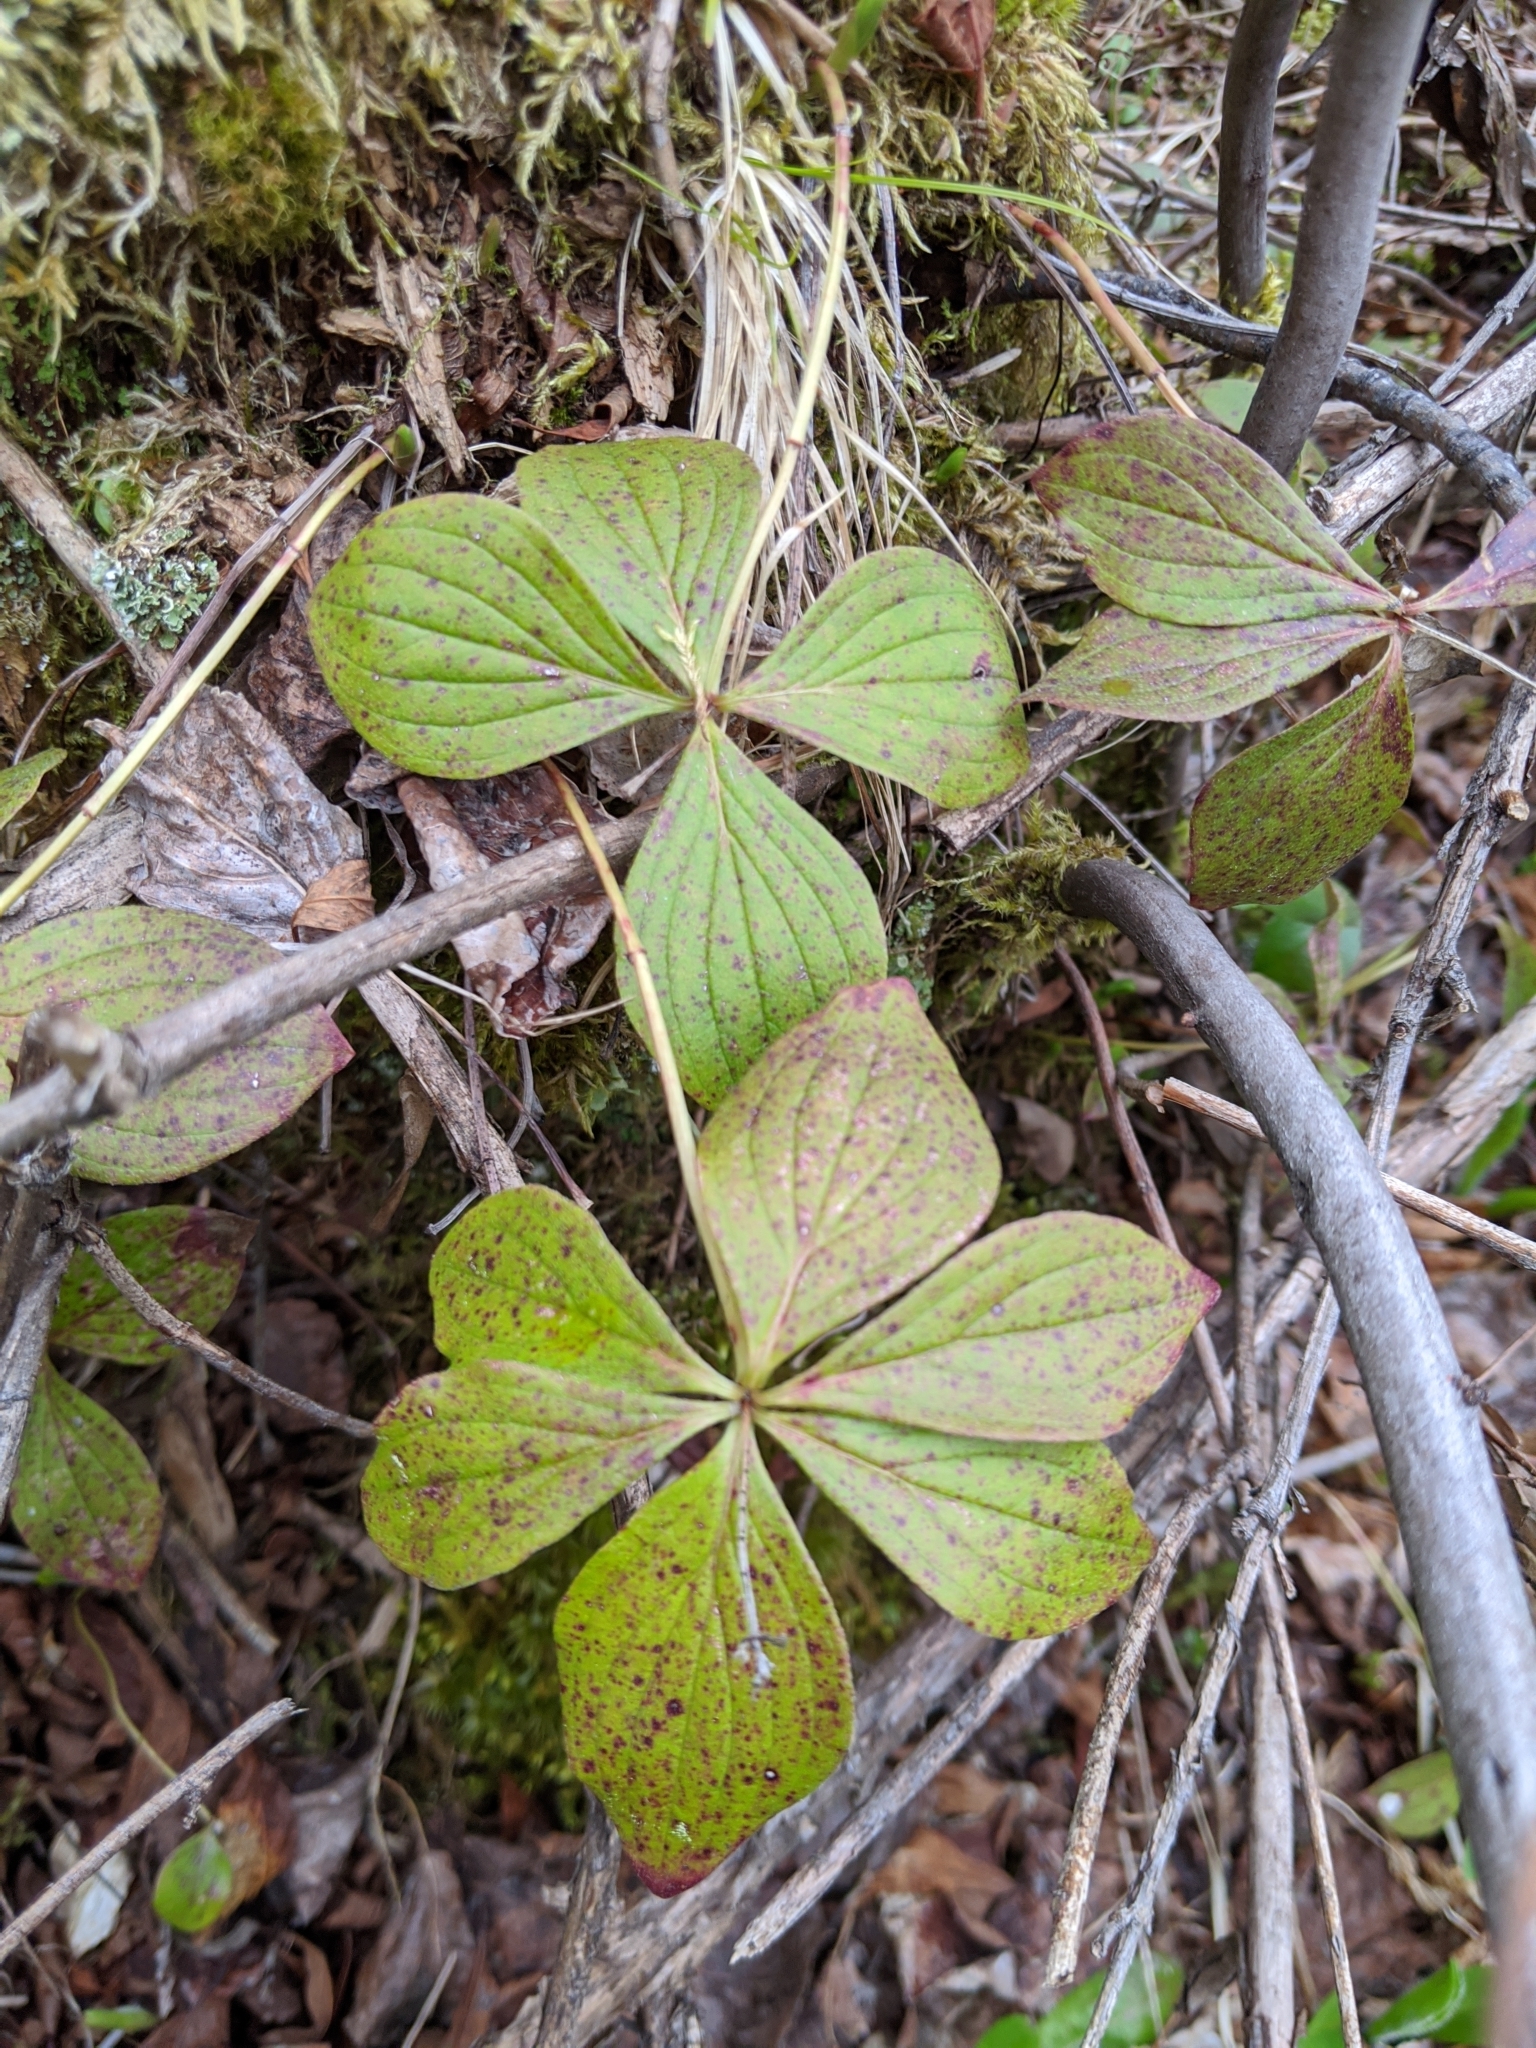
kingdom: Plantae
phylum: Tracheophyta
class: Magnoliopsida
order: Cornales
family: Cornaceae
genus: Cornus
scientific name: Cornus canadensis
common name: Creeping dogwood
